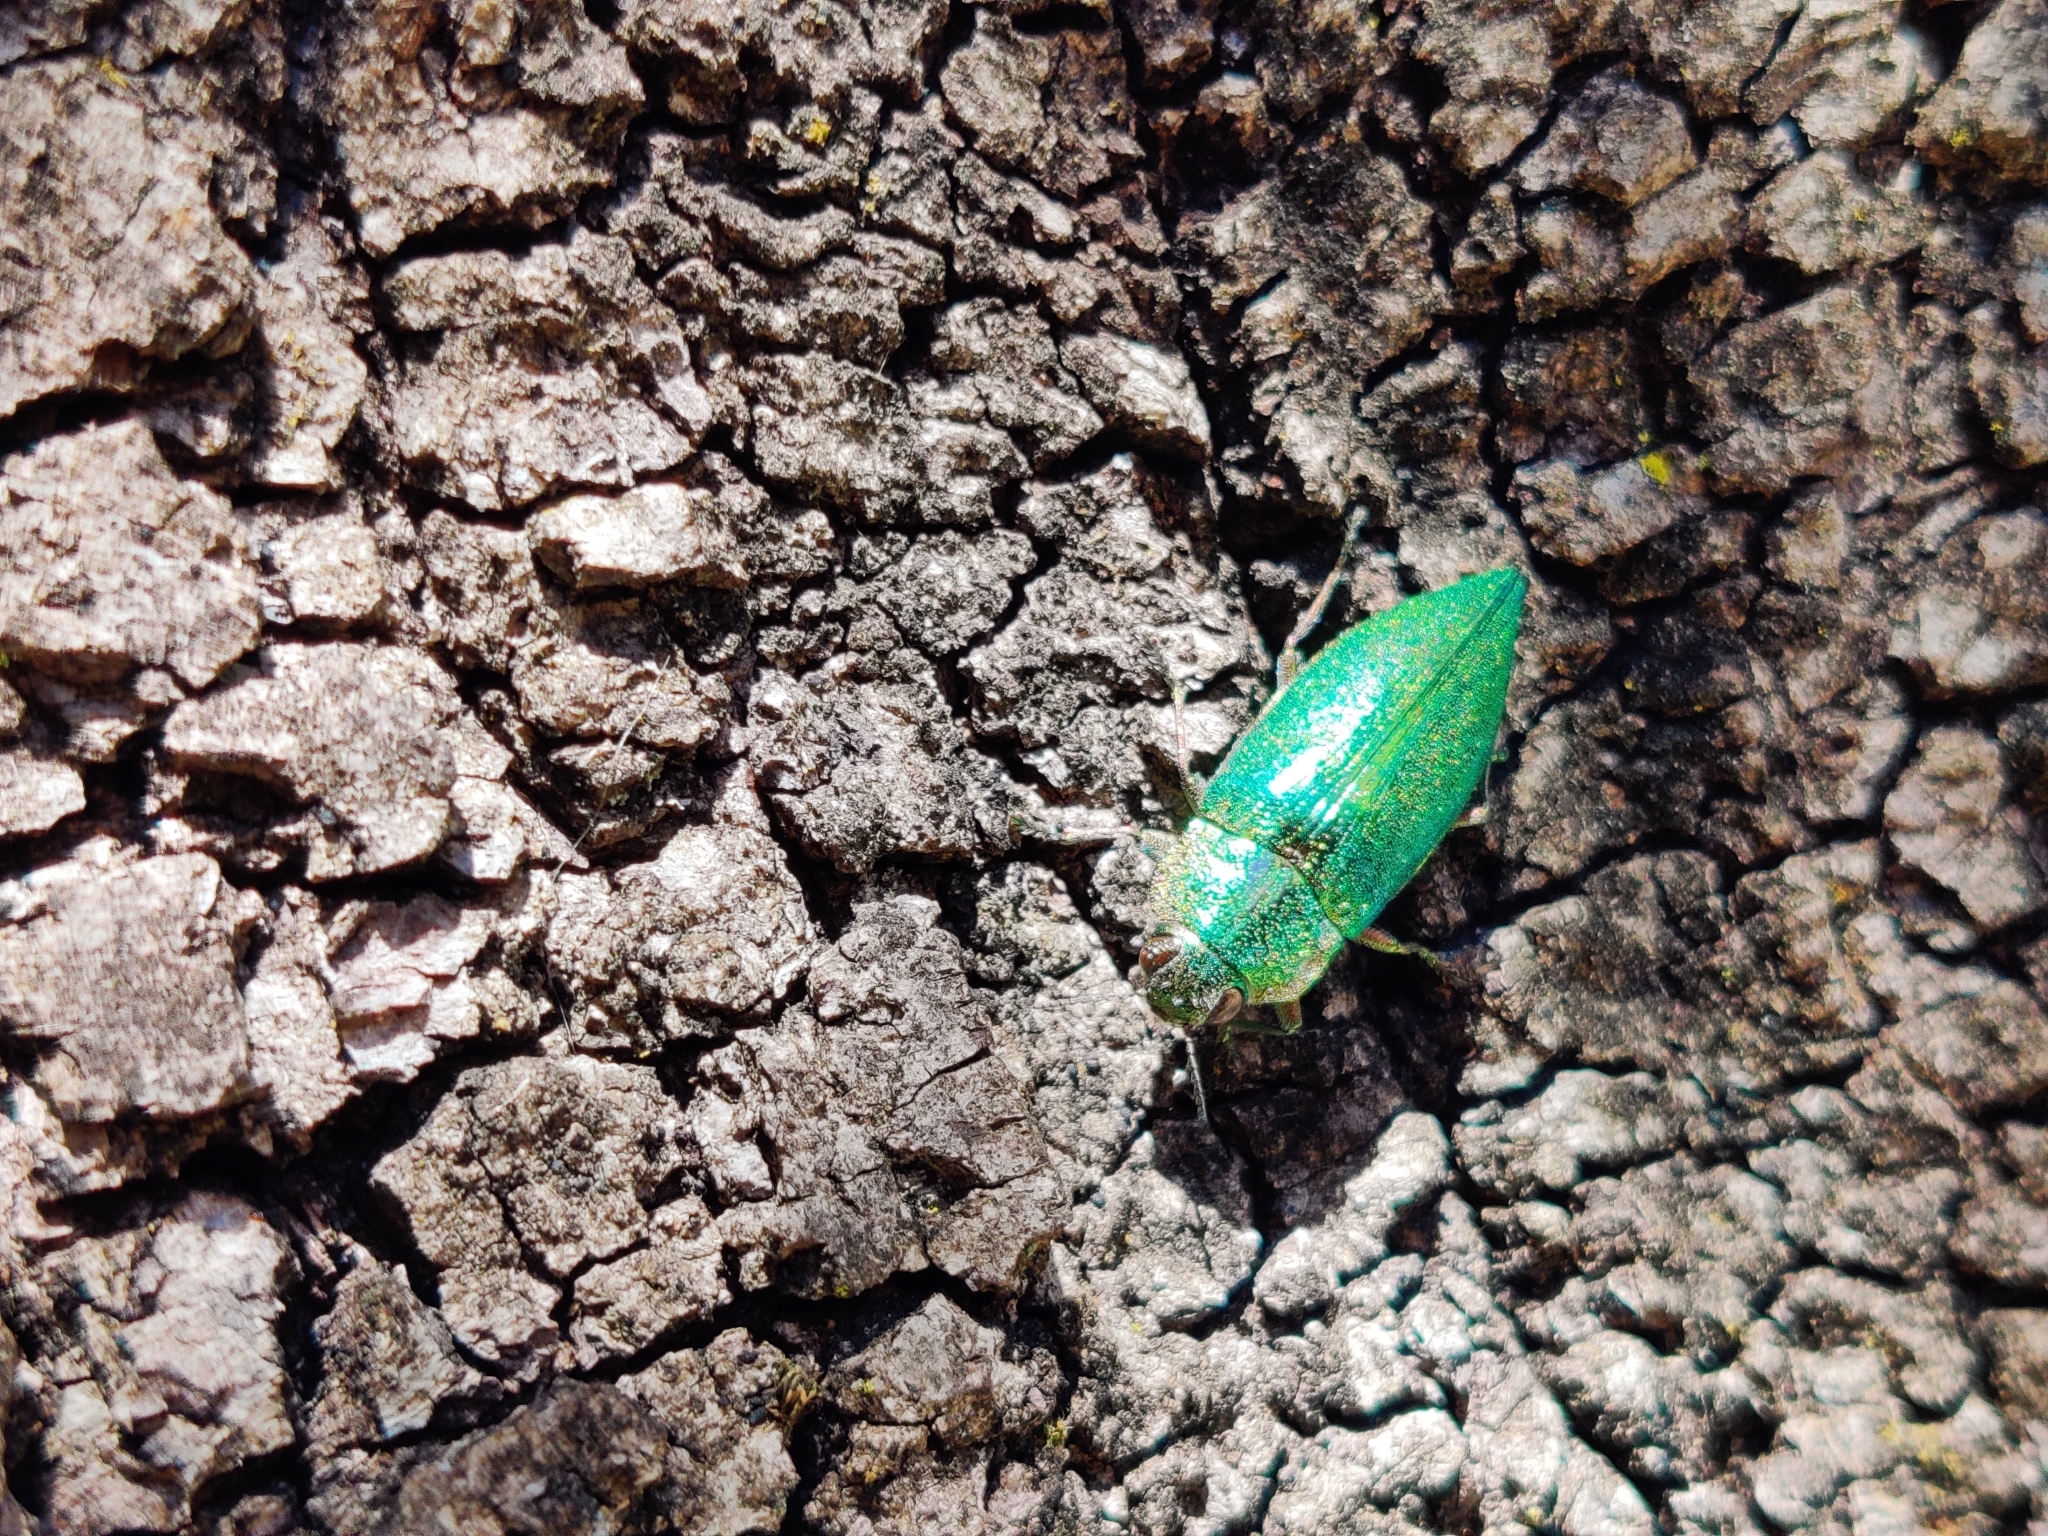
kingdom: Animalia
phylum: Arthropoda
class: Insecta
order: Coleoptera
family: Buprestidae
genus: Latipalpis
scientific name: Latipalpis plana
